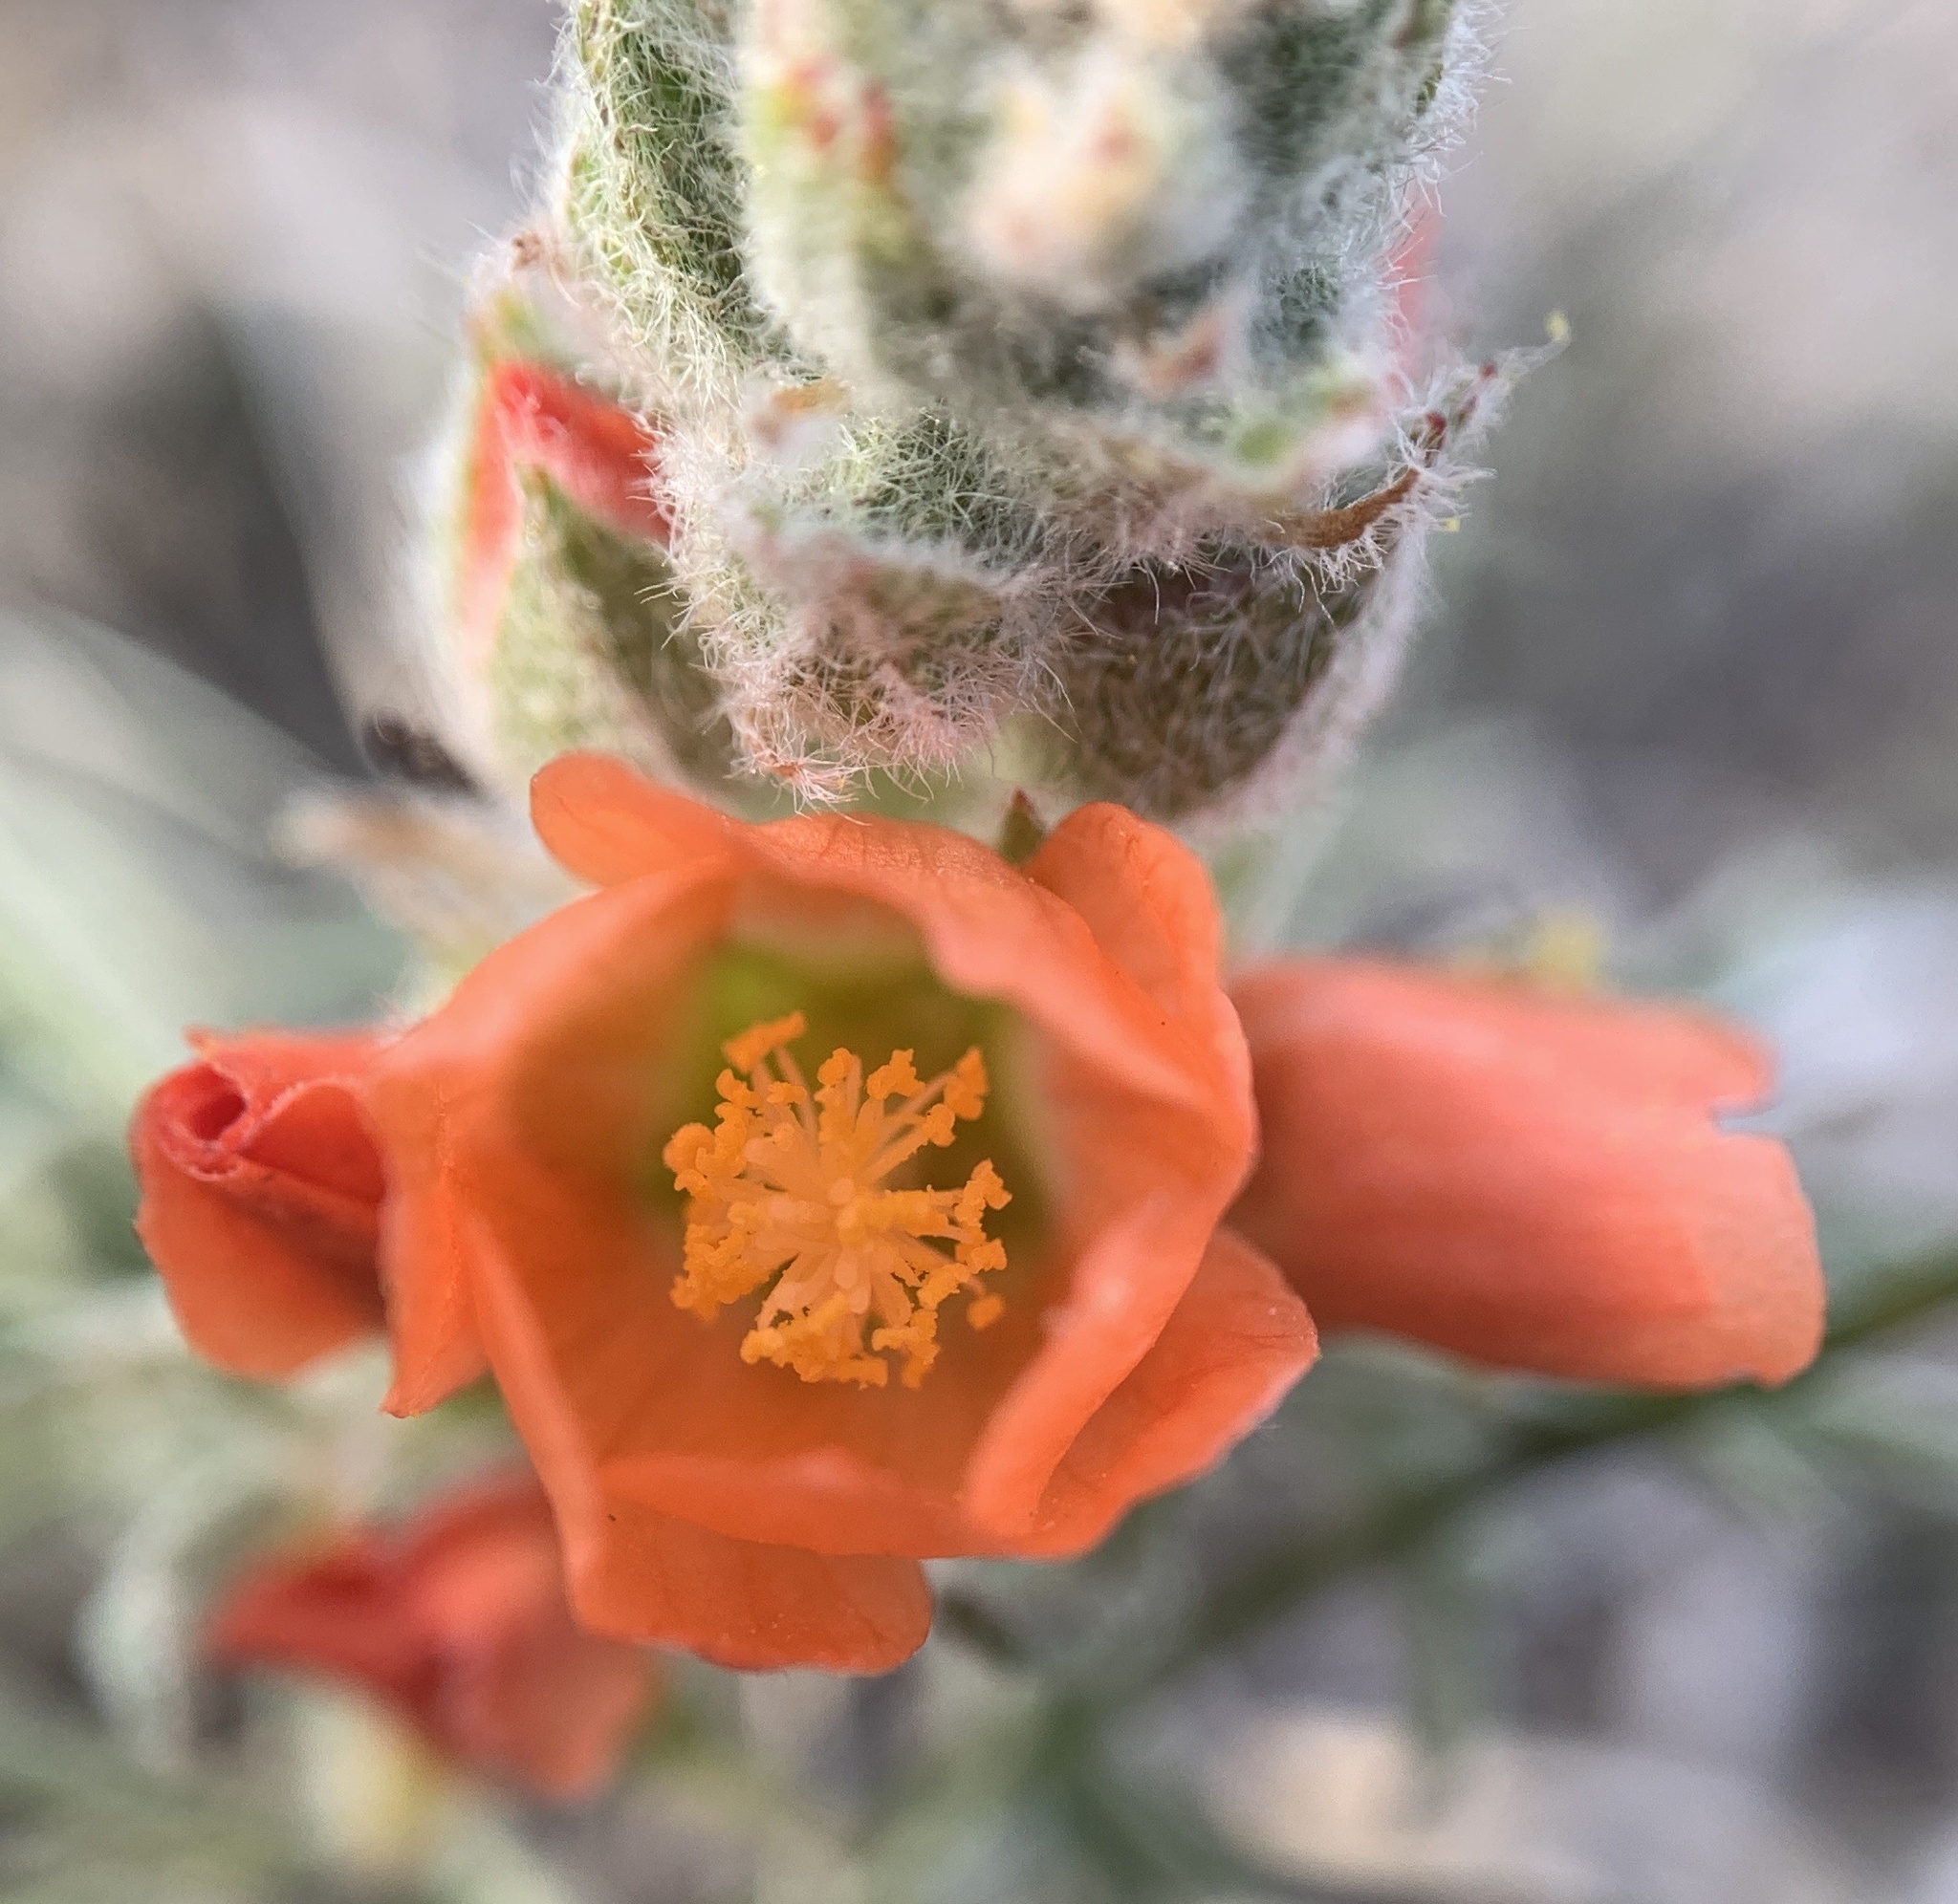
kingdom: Plantae
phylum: Tracheophyta
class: Magnoliopsida
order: Malvales
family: Malvaceae
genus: Sphaeralcea
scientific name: Sphaeralcea coccinea
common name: Moss-rose
